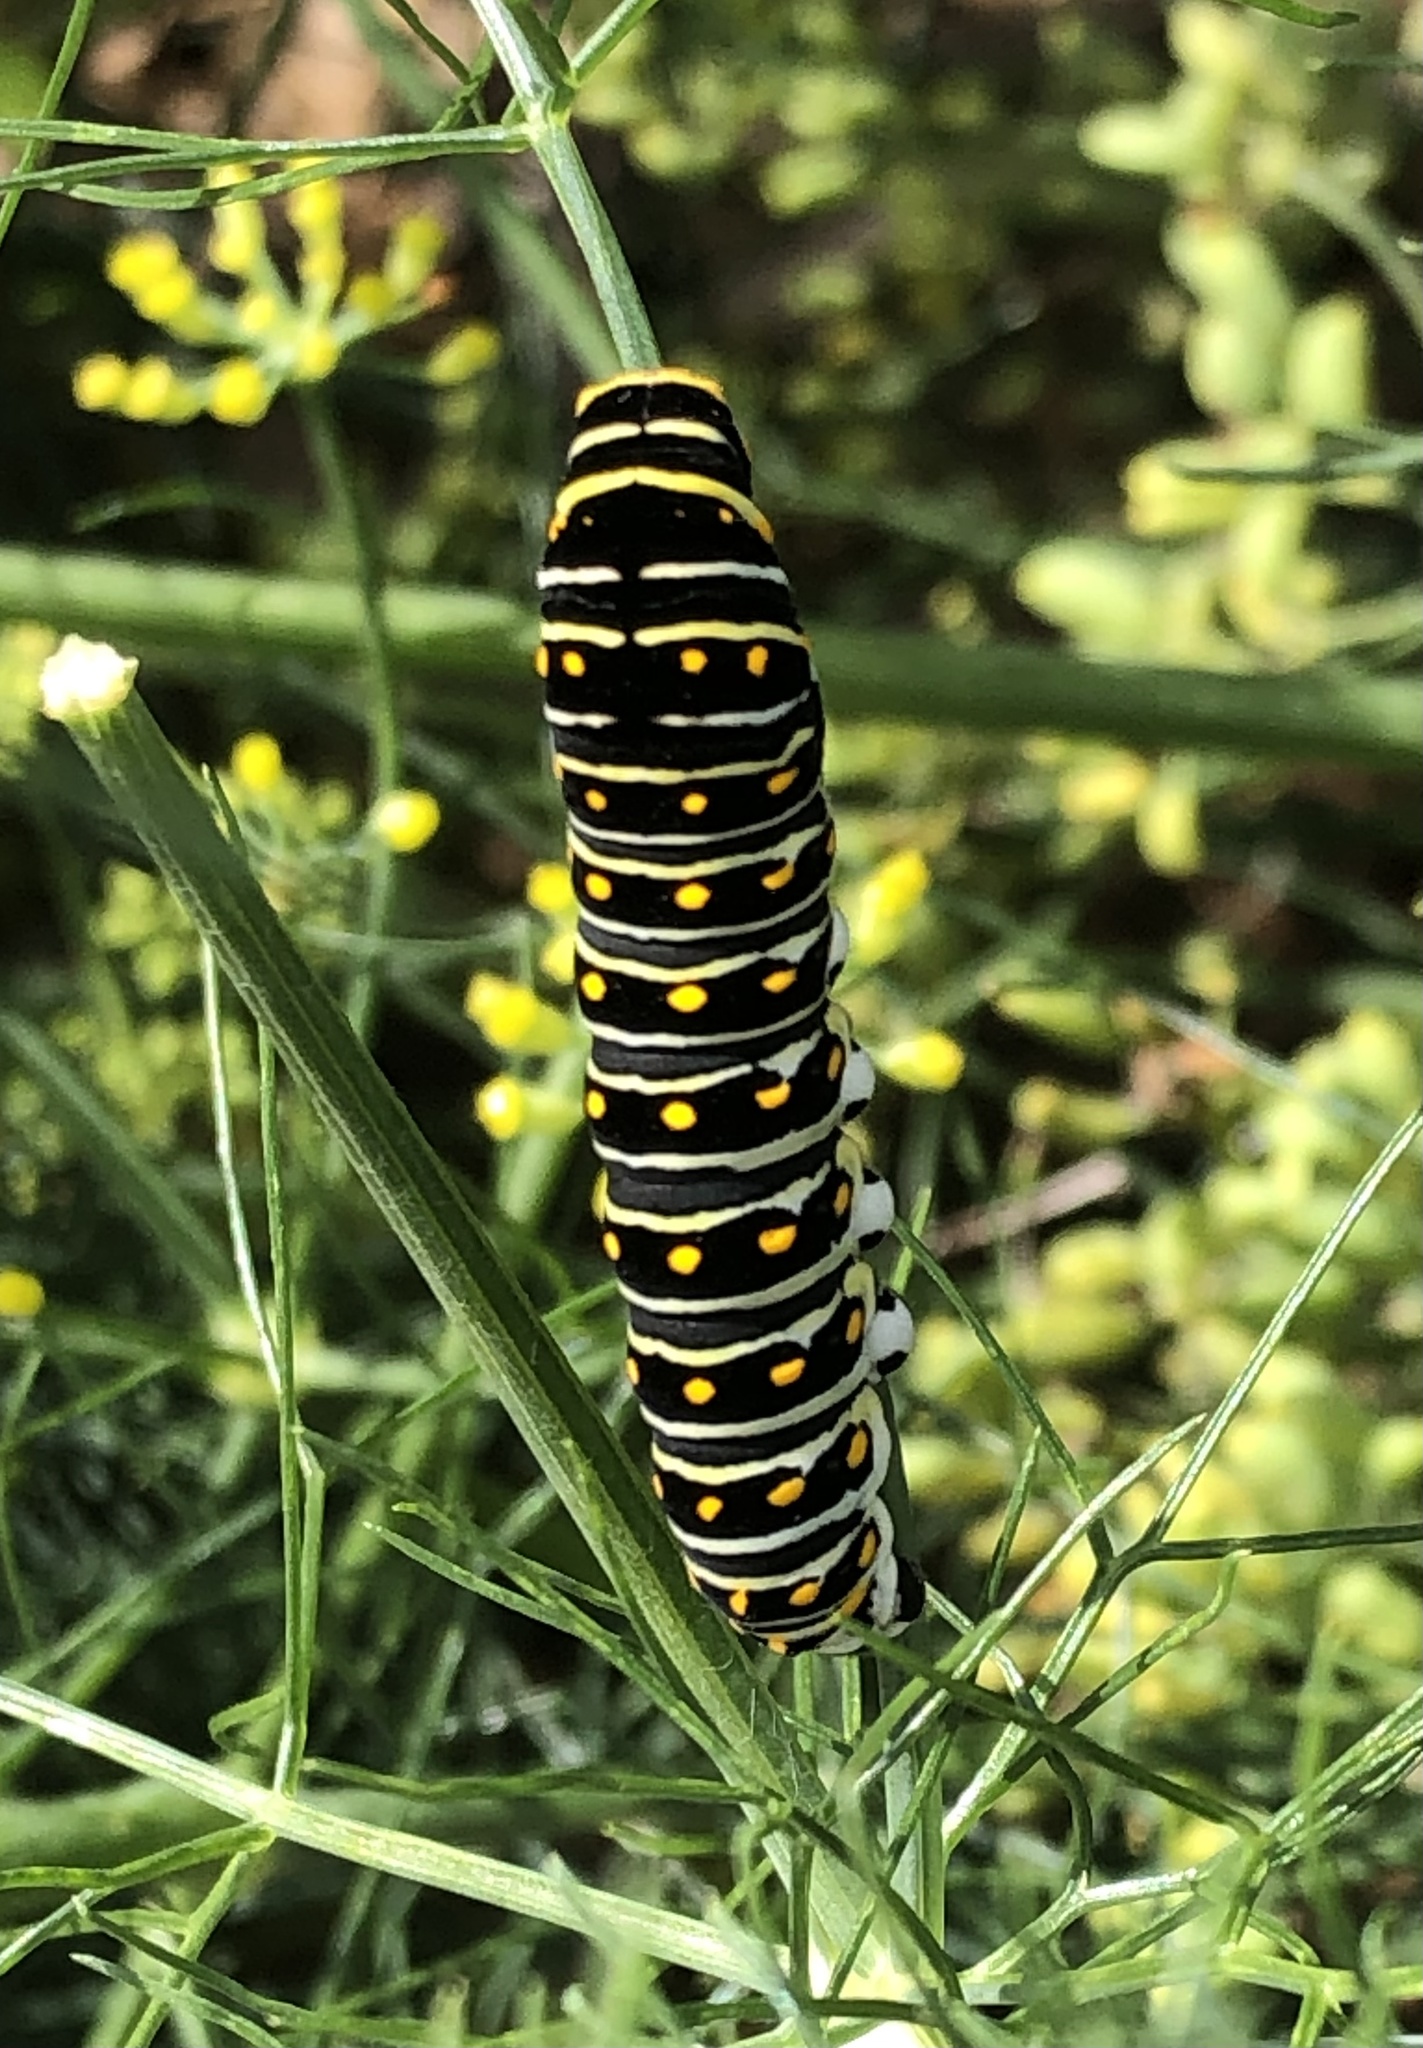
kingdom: Animalia
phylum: Arthropoda
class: Insecta
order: Lepidoptera
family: Papilionidae
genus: Papilio
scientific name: Papilio polyxenes
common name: Black swallowtail
